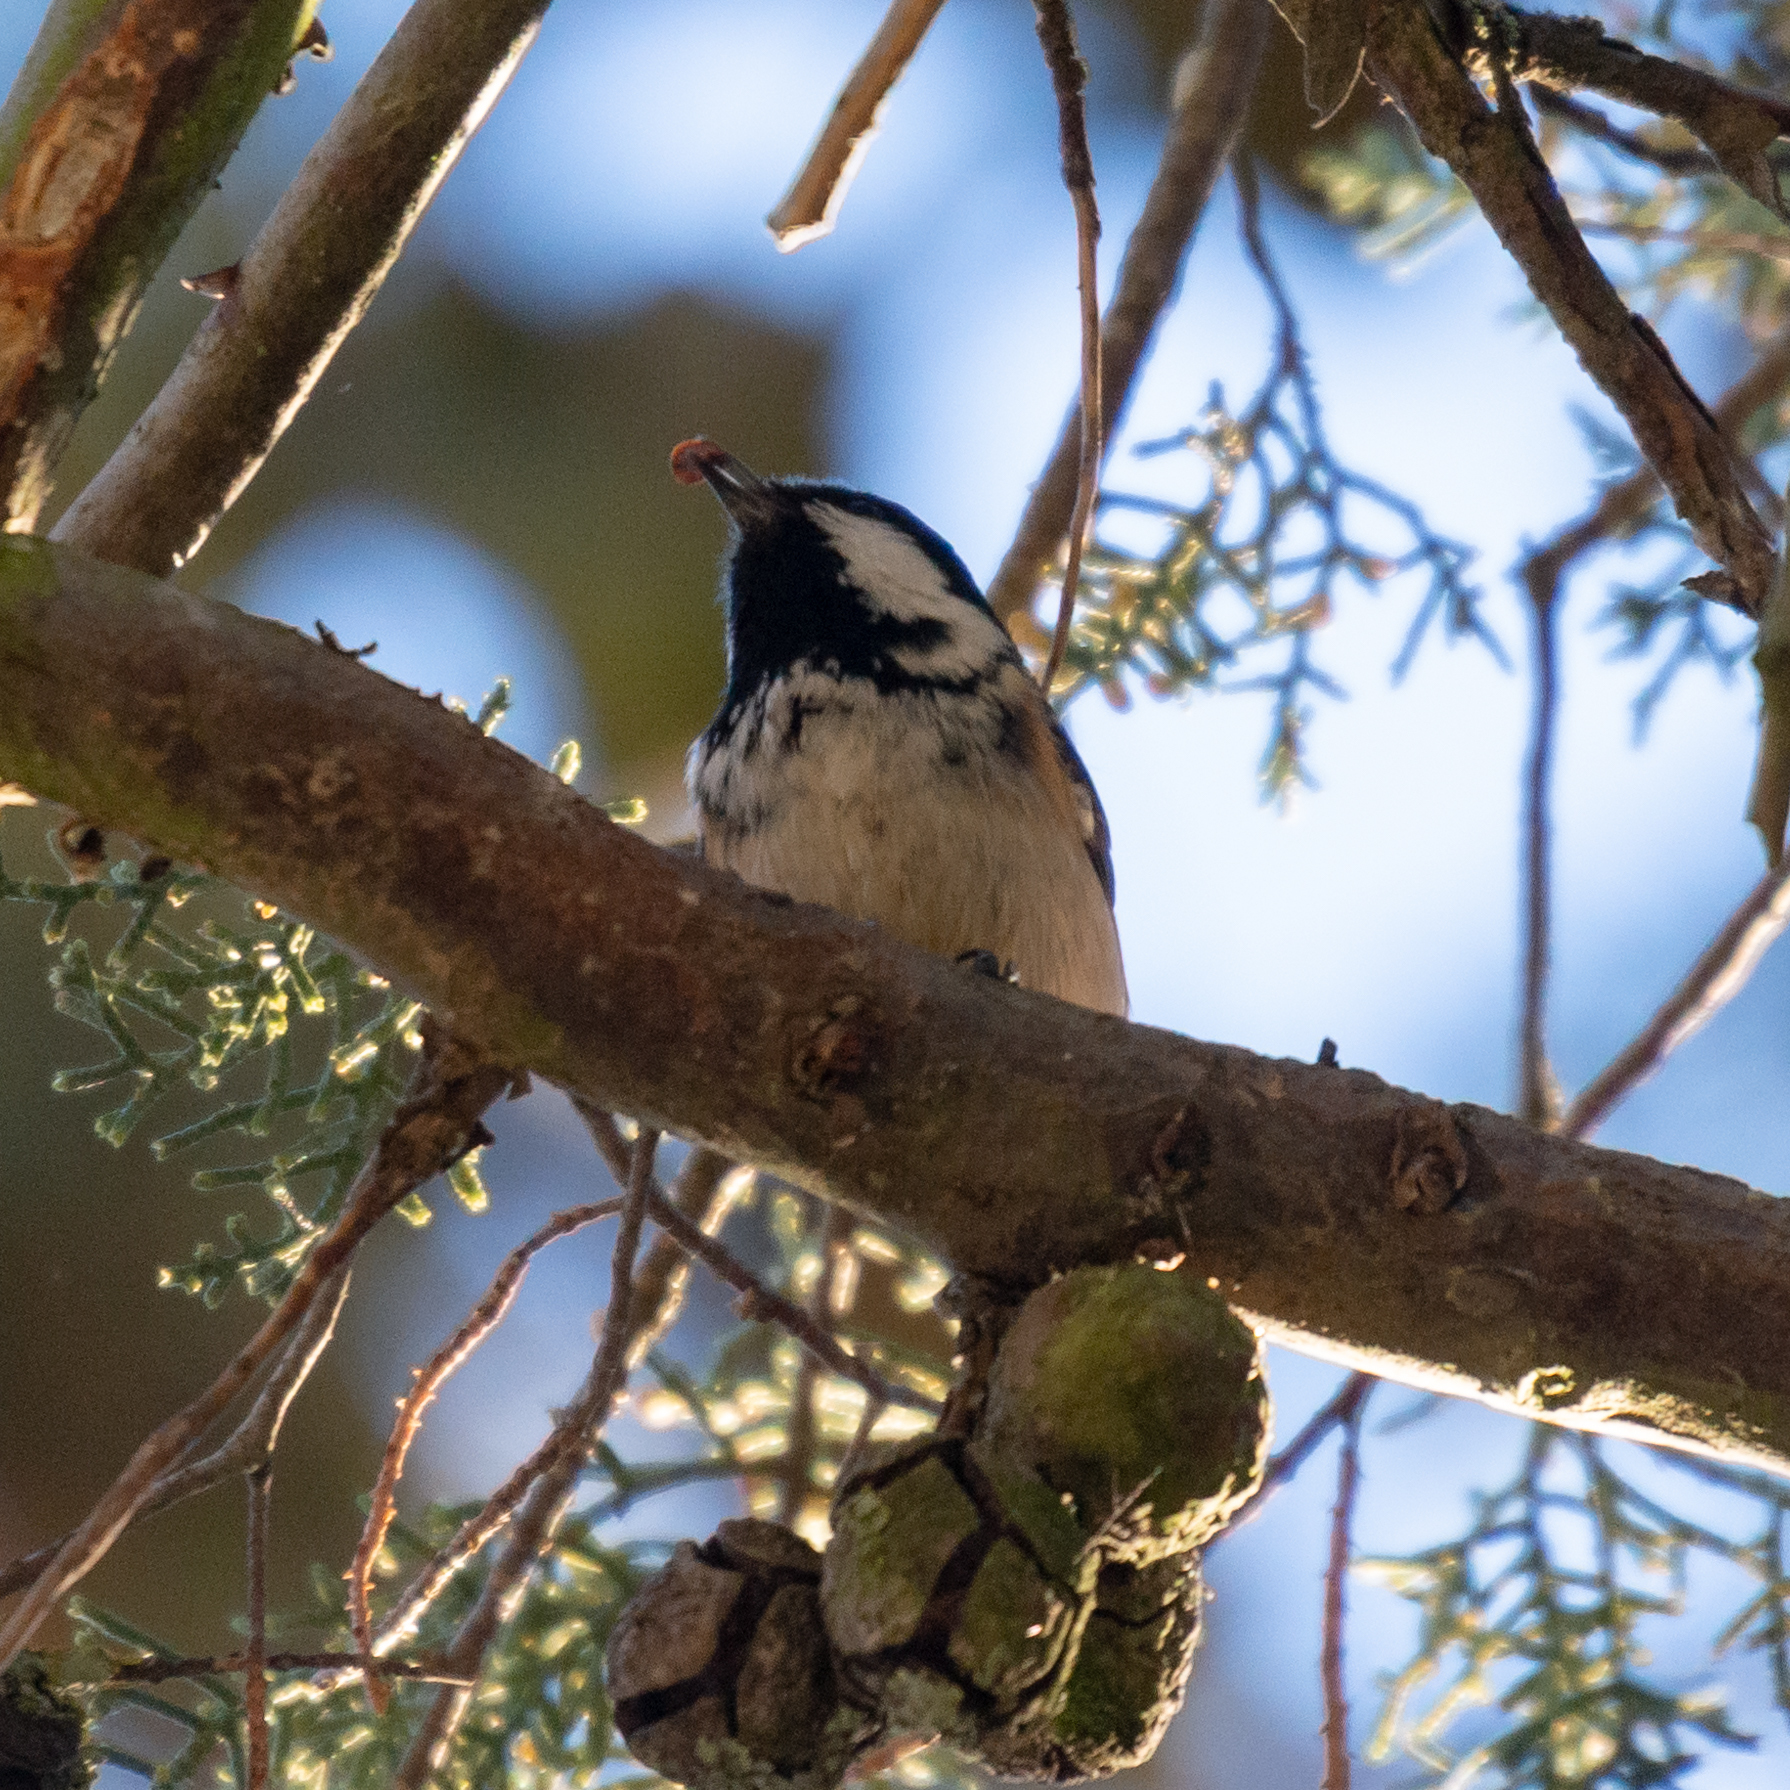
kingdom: Animalia
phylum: Chordata
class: Aves
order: Passeriformes
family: Paridae
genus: Periparus
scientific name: Periparus ater
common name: Coal tit
